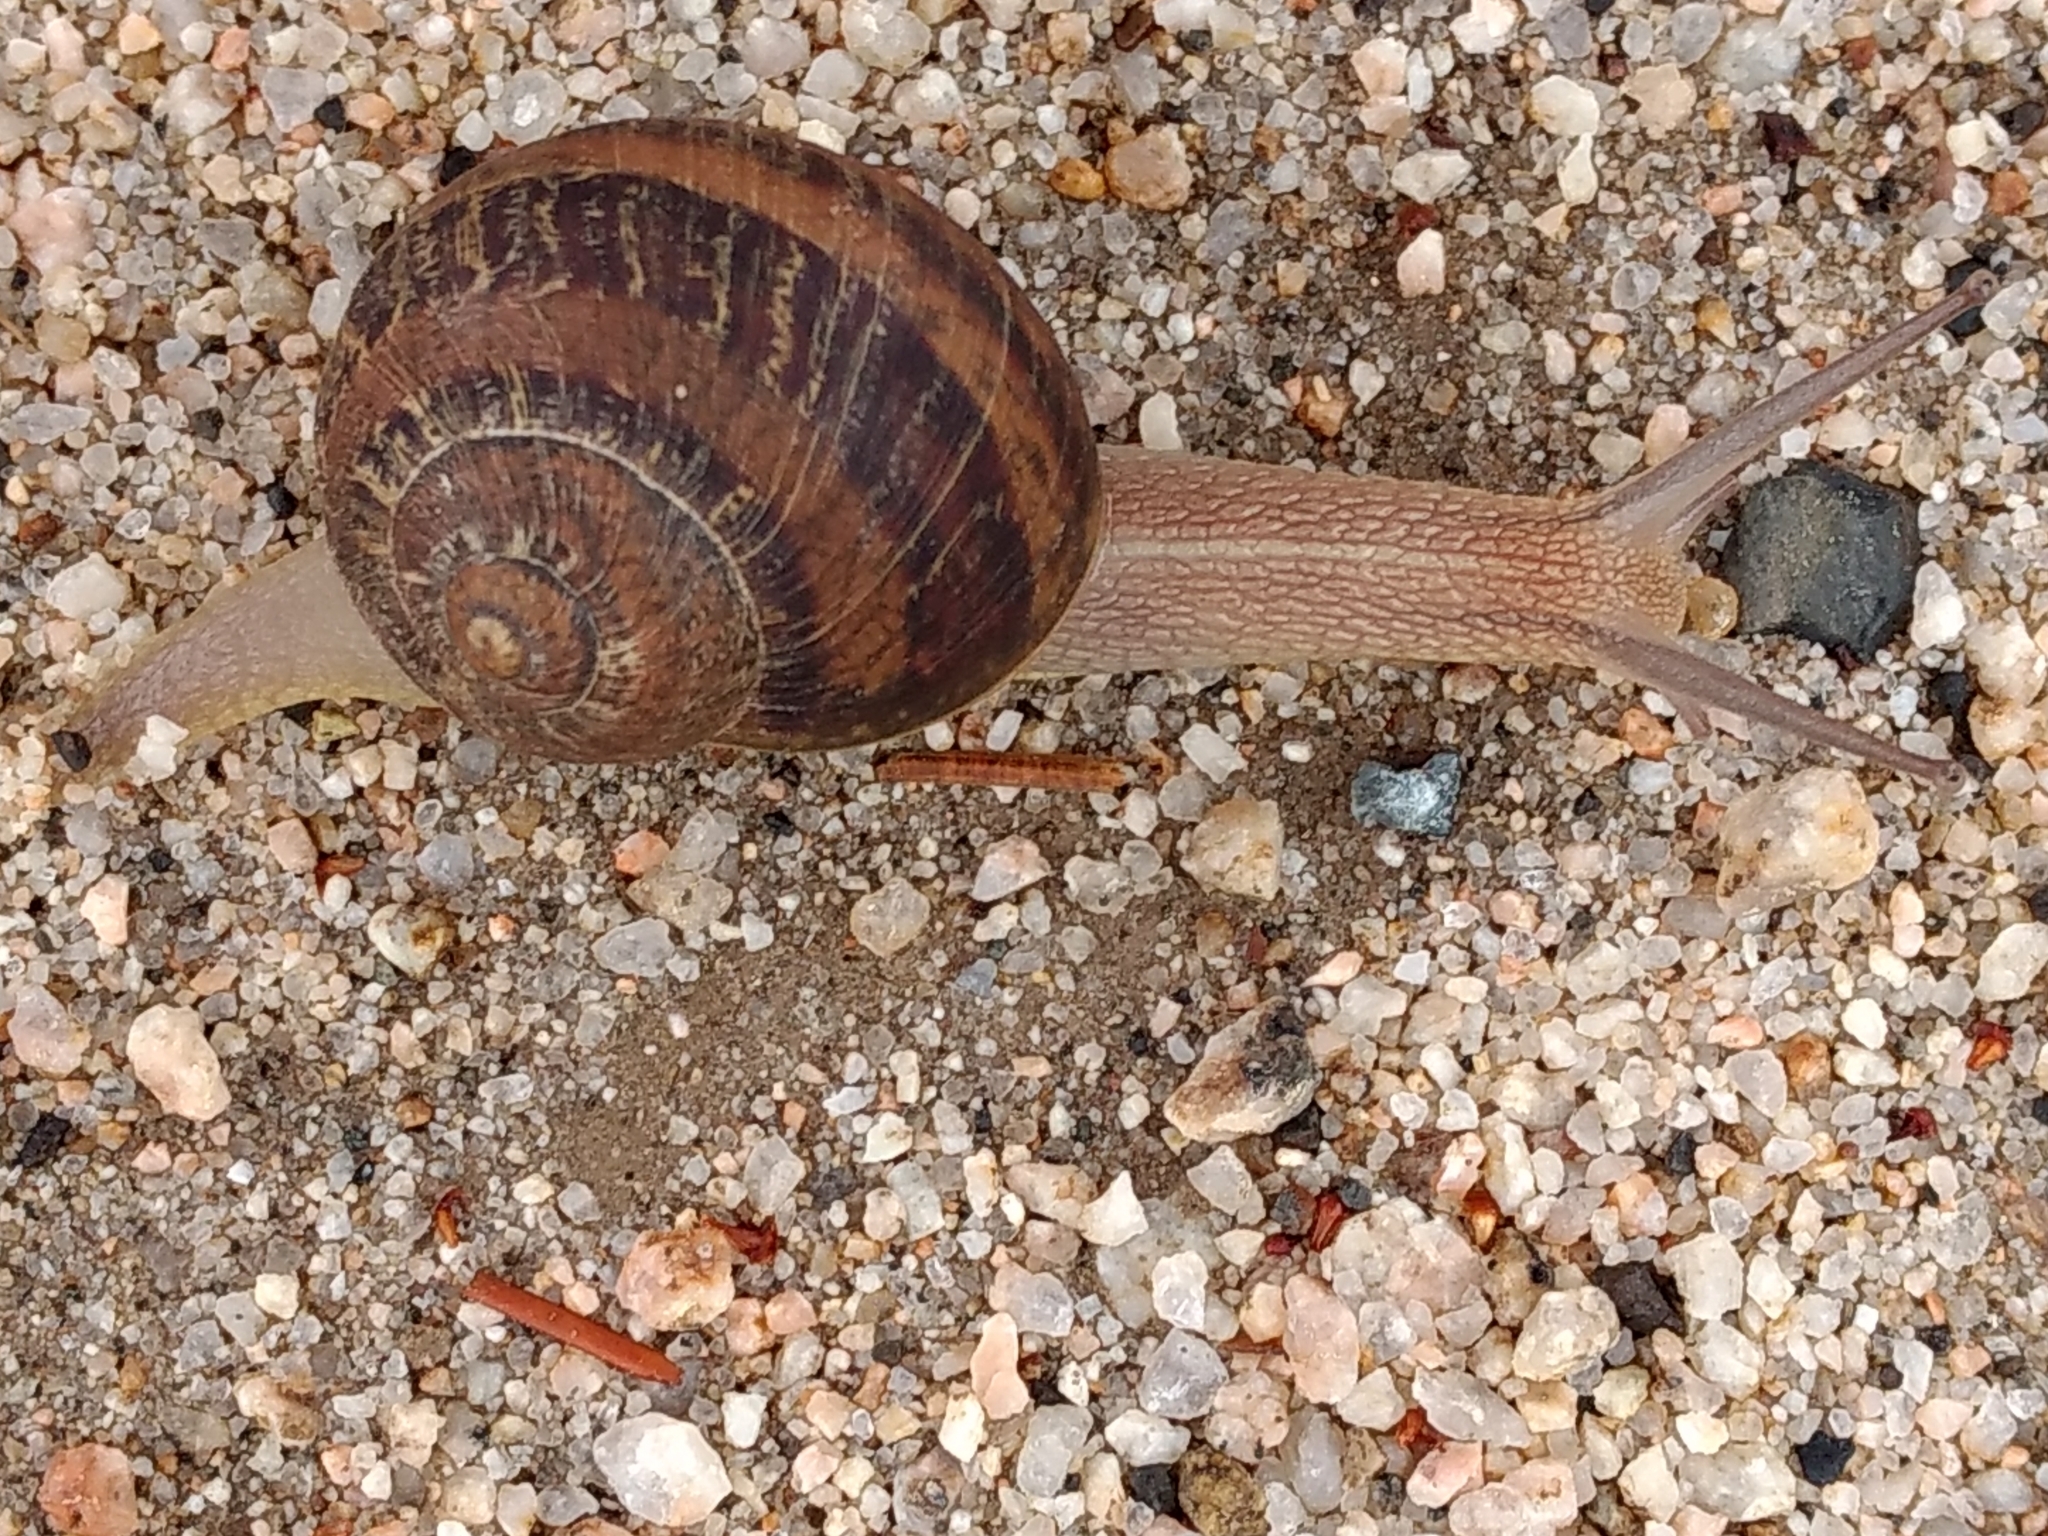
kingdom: Animalia
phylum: Mollusca
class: Gastropoda
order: Stylommatophora
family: Helicidae
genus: Cornu
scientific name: Cornu aspersum
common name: Brown garden snail
